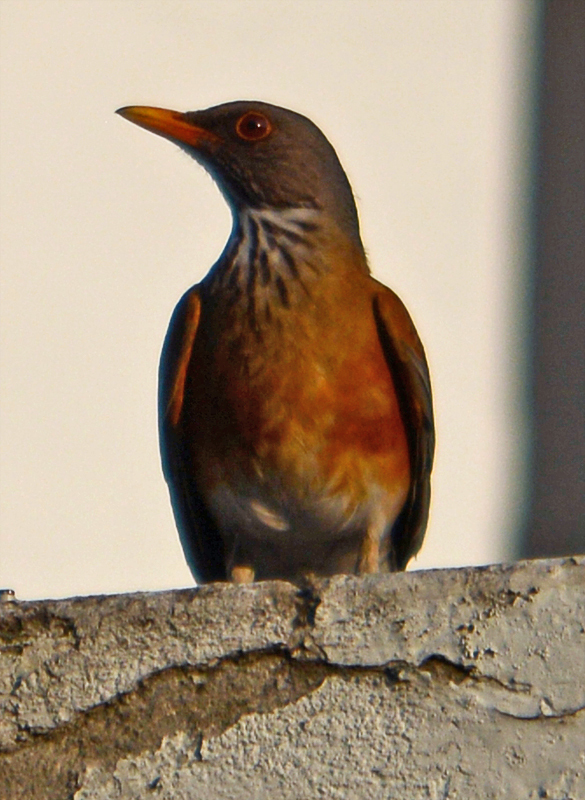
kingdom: Animalia
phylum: Chordata
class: Aves
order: Passeriformes
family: Turdidae
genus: Turdus
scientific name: Turdus rufopalliatus
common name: Rufous-backed robin
